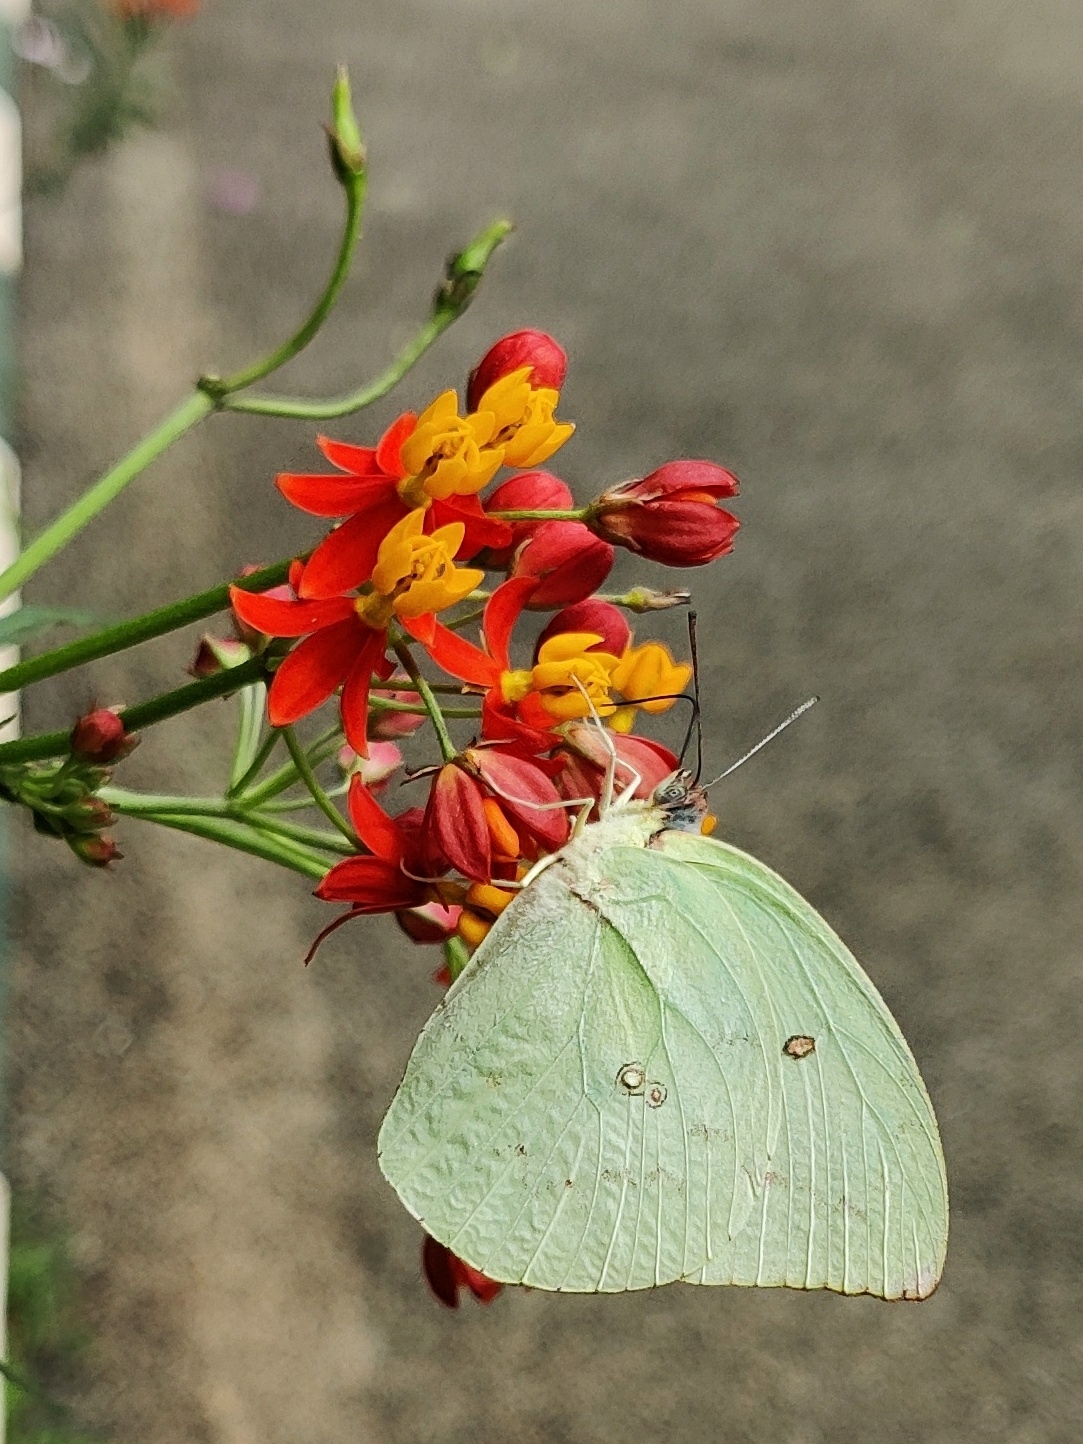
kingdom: Animalia
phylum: Arthropoda
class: Insecta
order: Lepidoptera
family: Pieridae
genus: Catopsilia
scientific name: Catopsilia pomona
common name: Common emigrant
